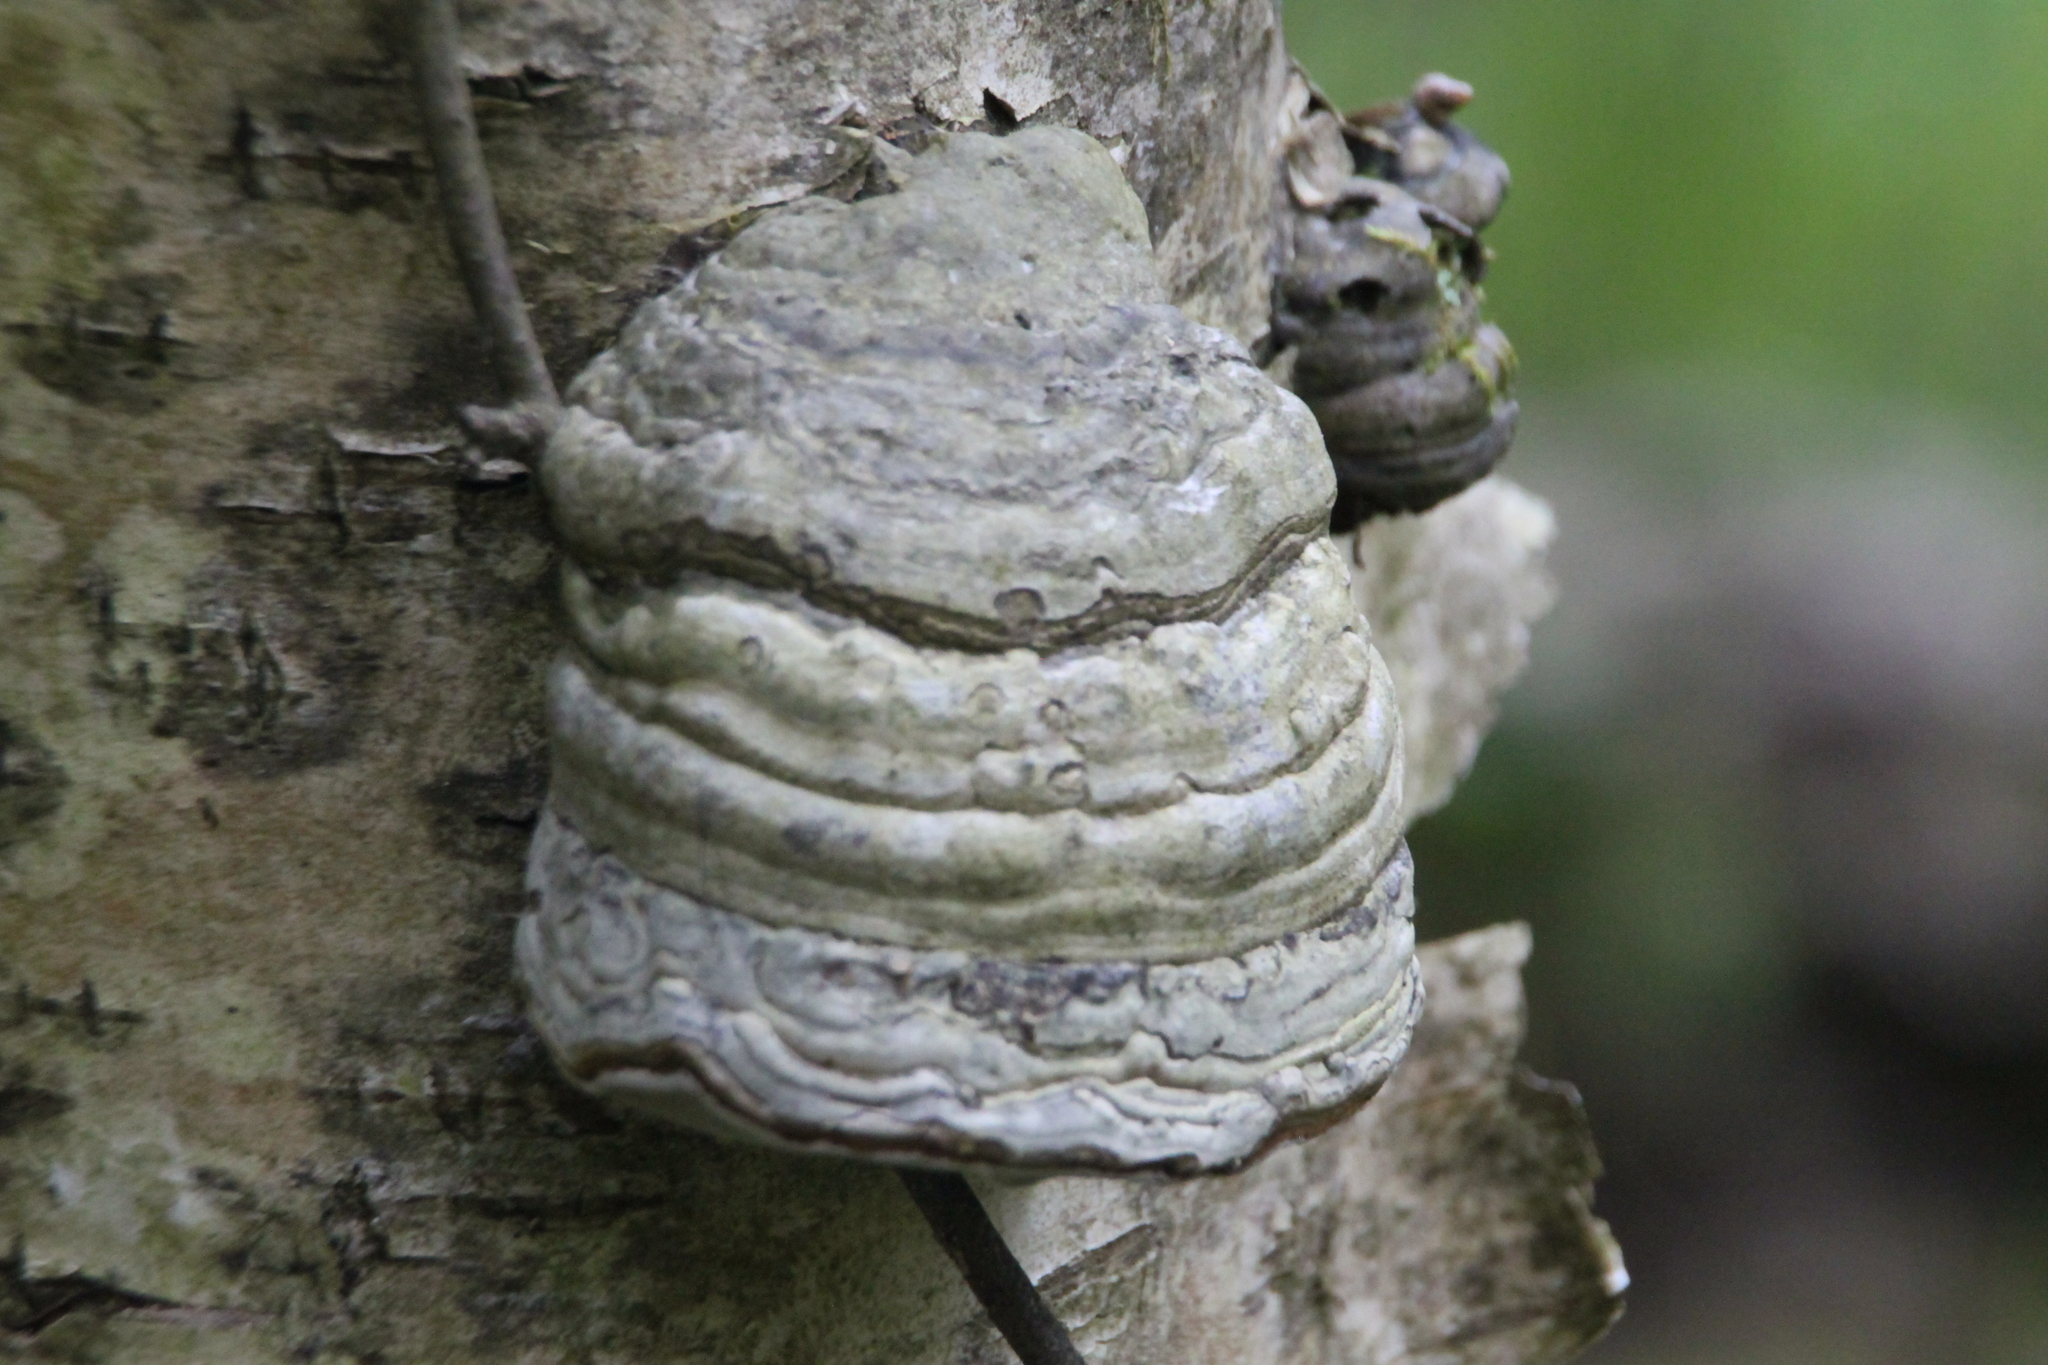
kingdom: Fungi
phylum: Basidiomycota
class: Agaricomycetes
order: Polyporales
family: Polyporaceae
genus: Fomes
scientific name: Fomes fomentarius
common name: Hoof fungus
